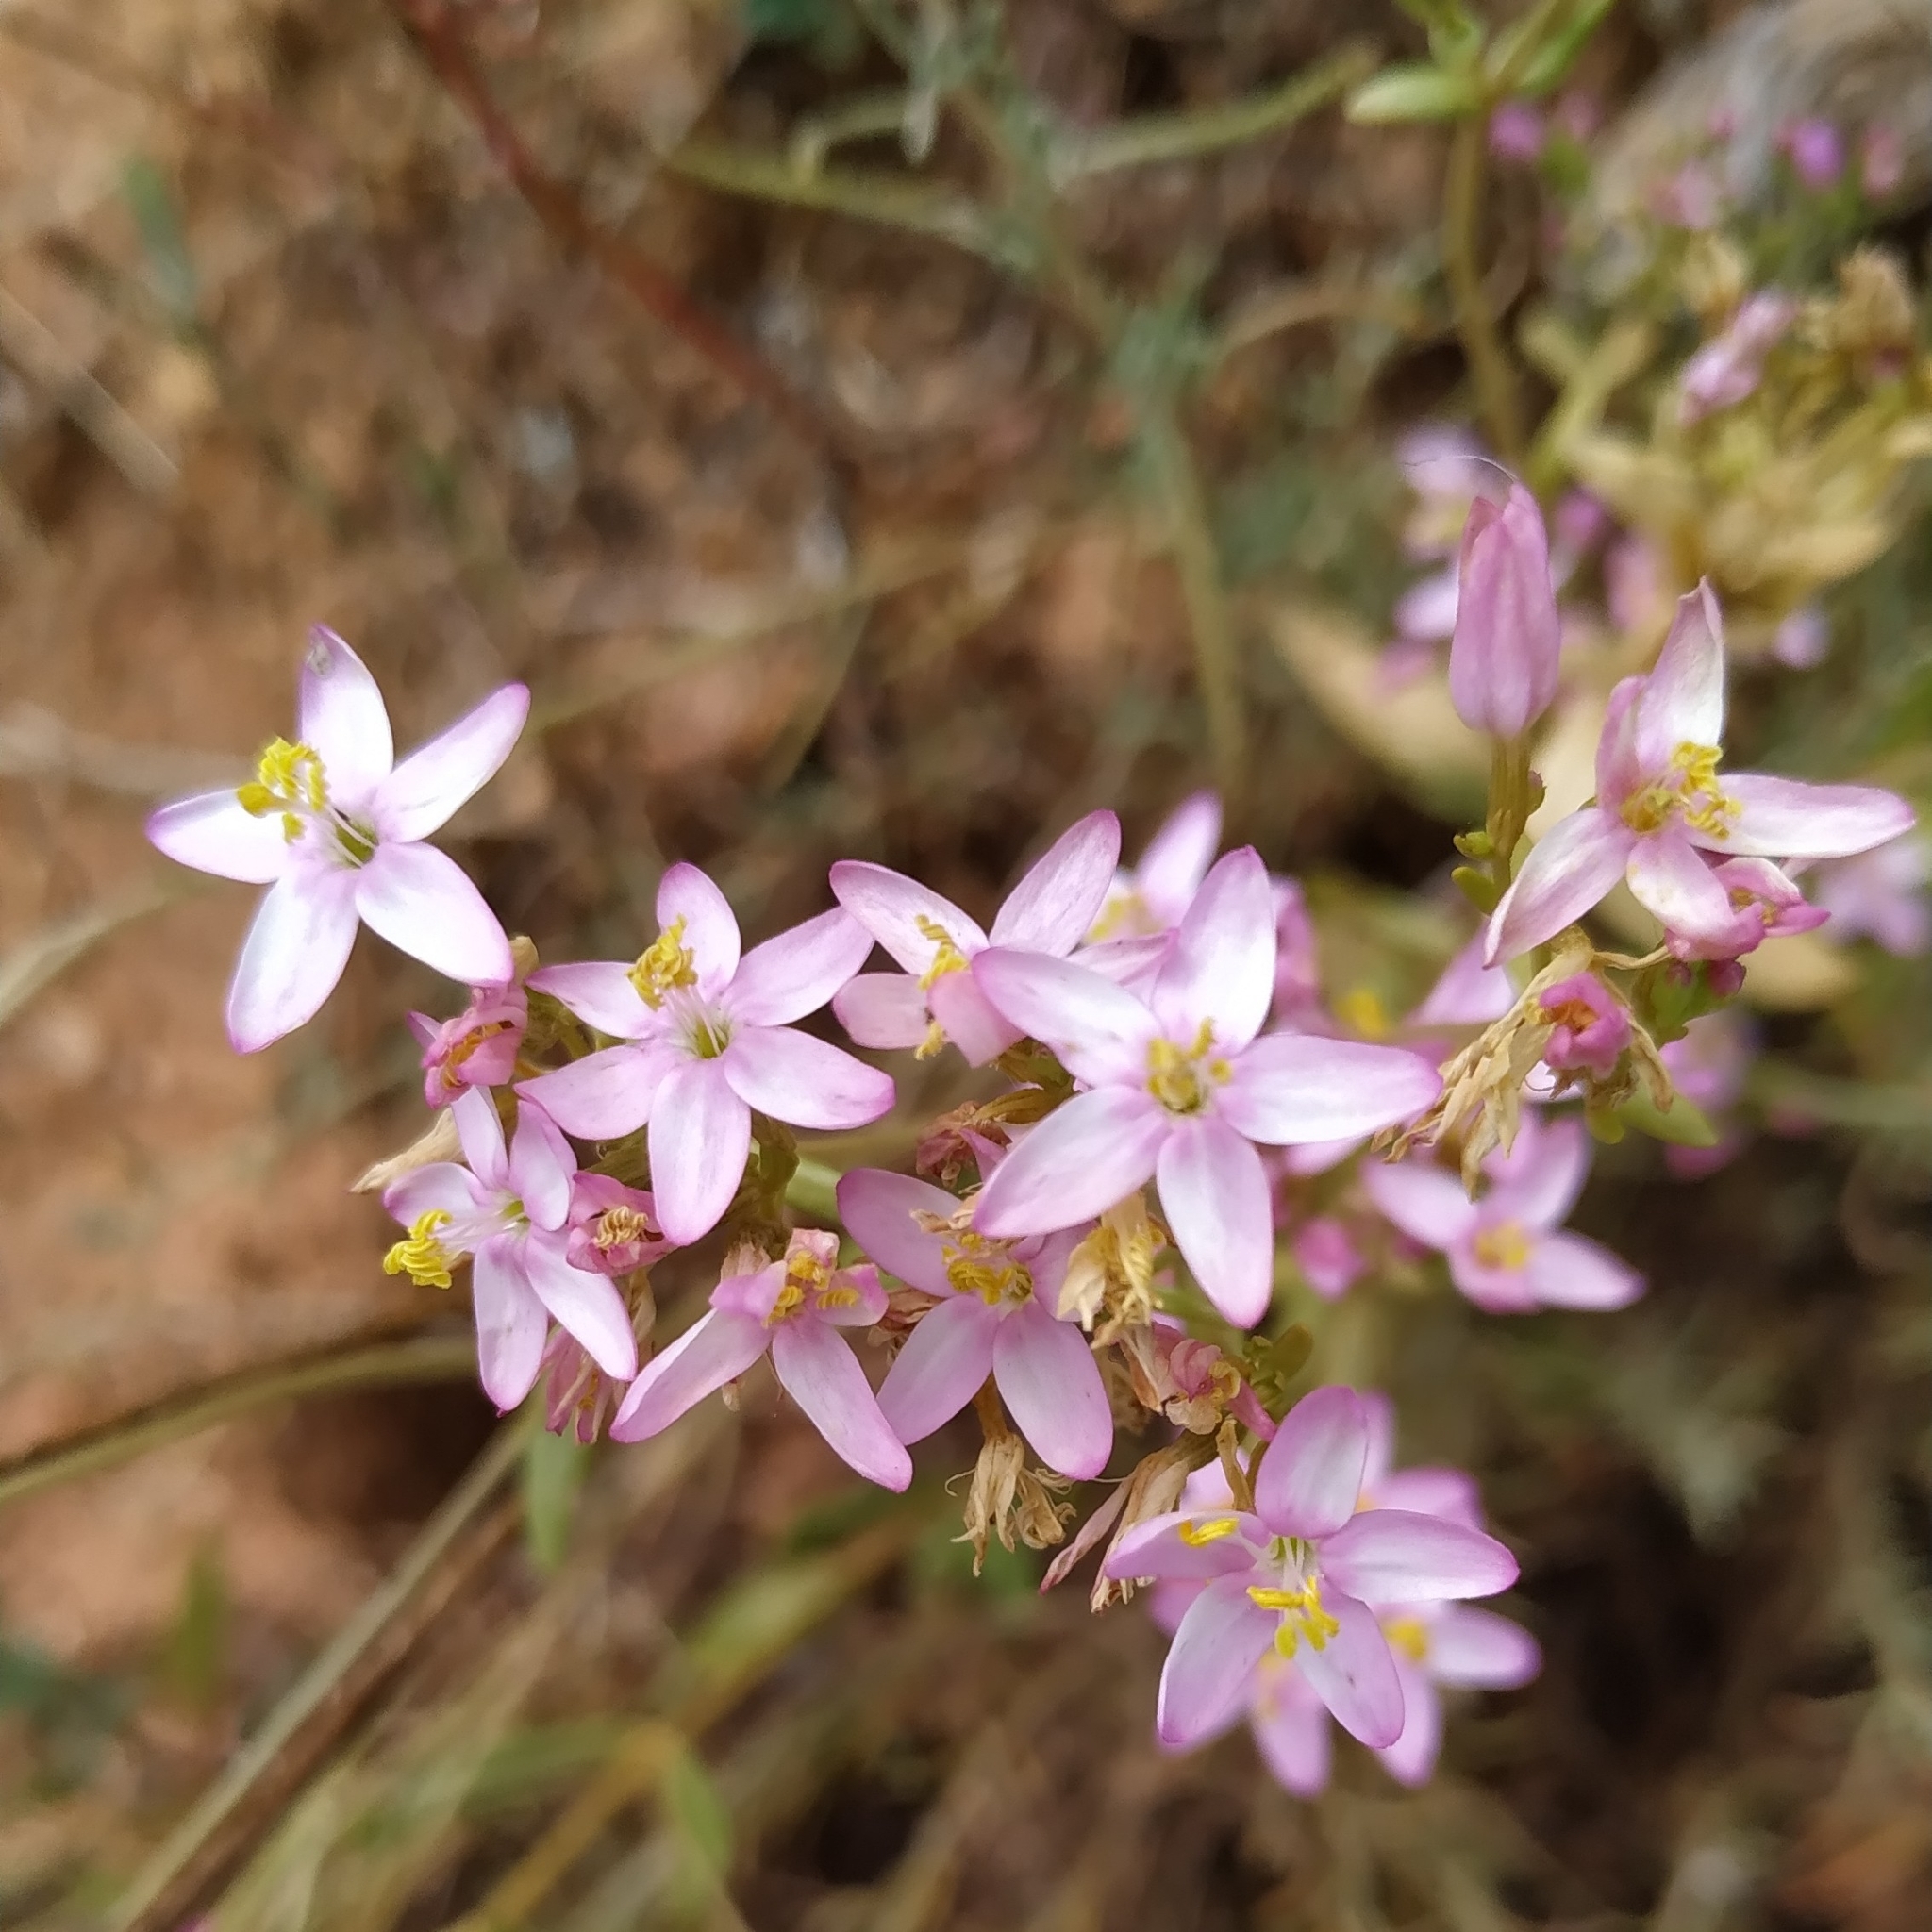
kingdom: Plantae
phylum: Tracheophyta
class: Magnoliopsida
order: Gentianales
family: Gentianaceae
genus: Centaurium
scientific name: Centaurium erythraea
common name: Common centaury
